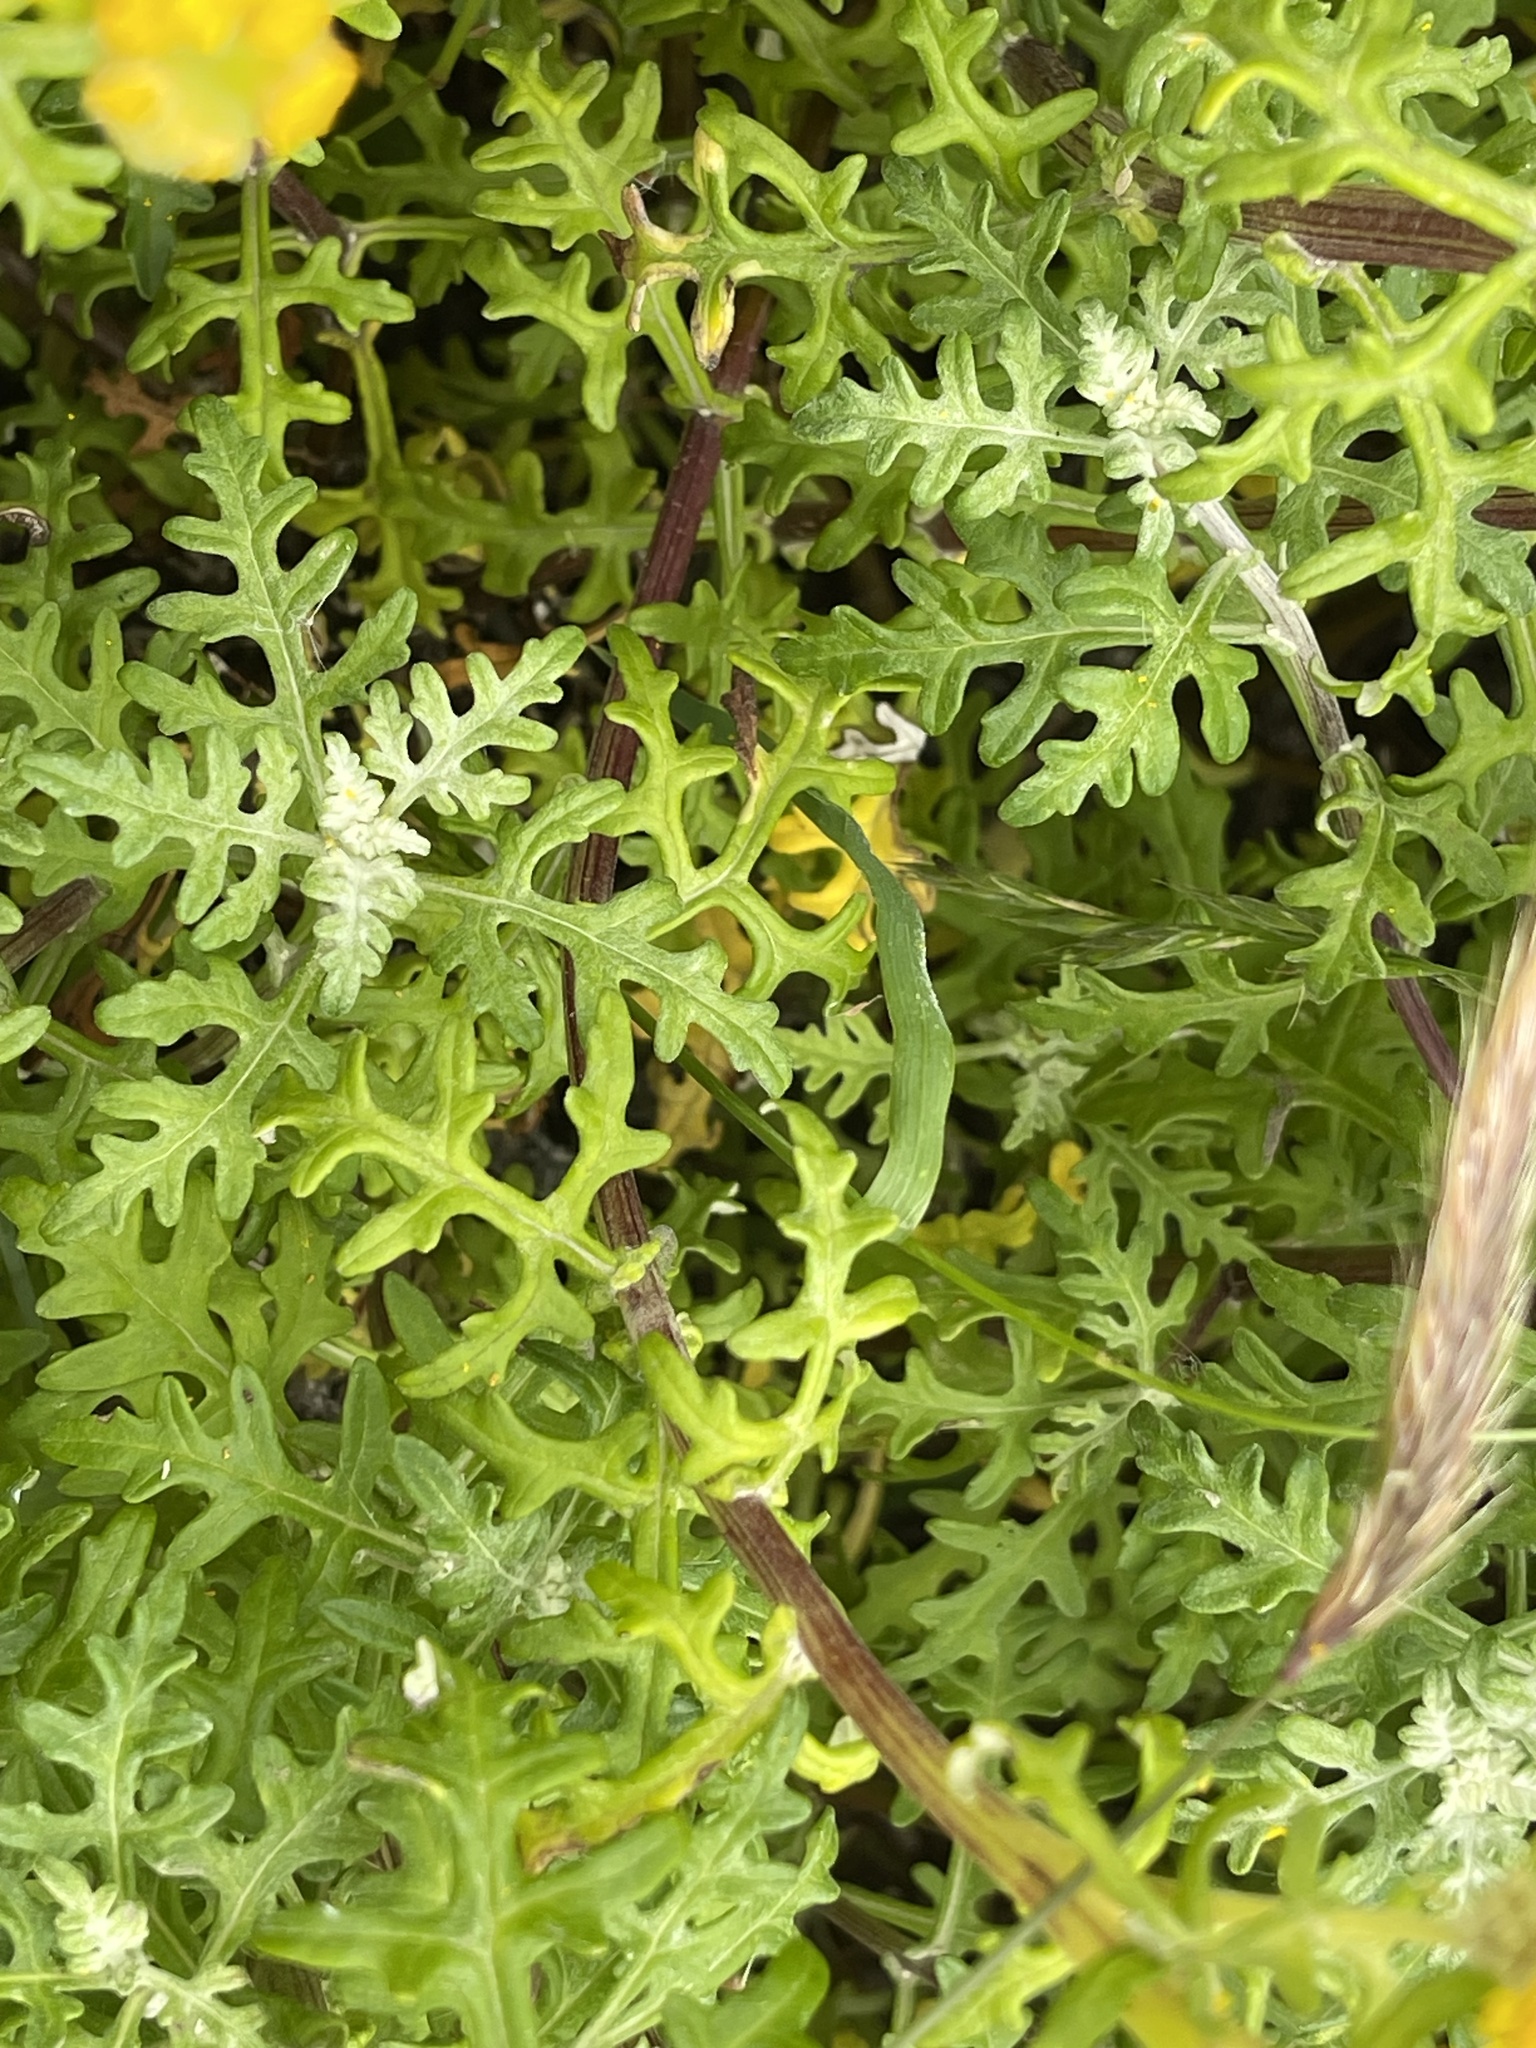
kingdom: Plantae
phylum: Tracheophyta
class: Magnoliopsida
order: Asterales
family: Asteraceae
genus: Eriophyllum
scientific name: Eriophyllum staechadifolium
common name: Lizardtail
